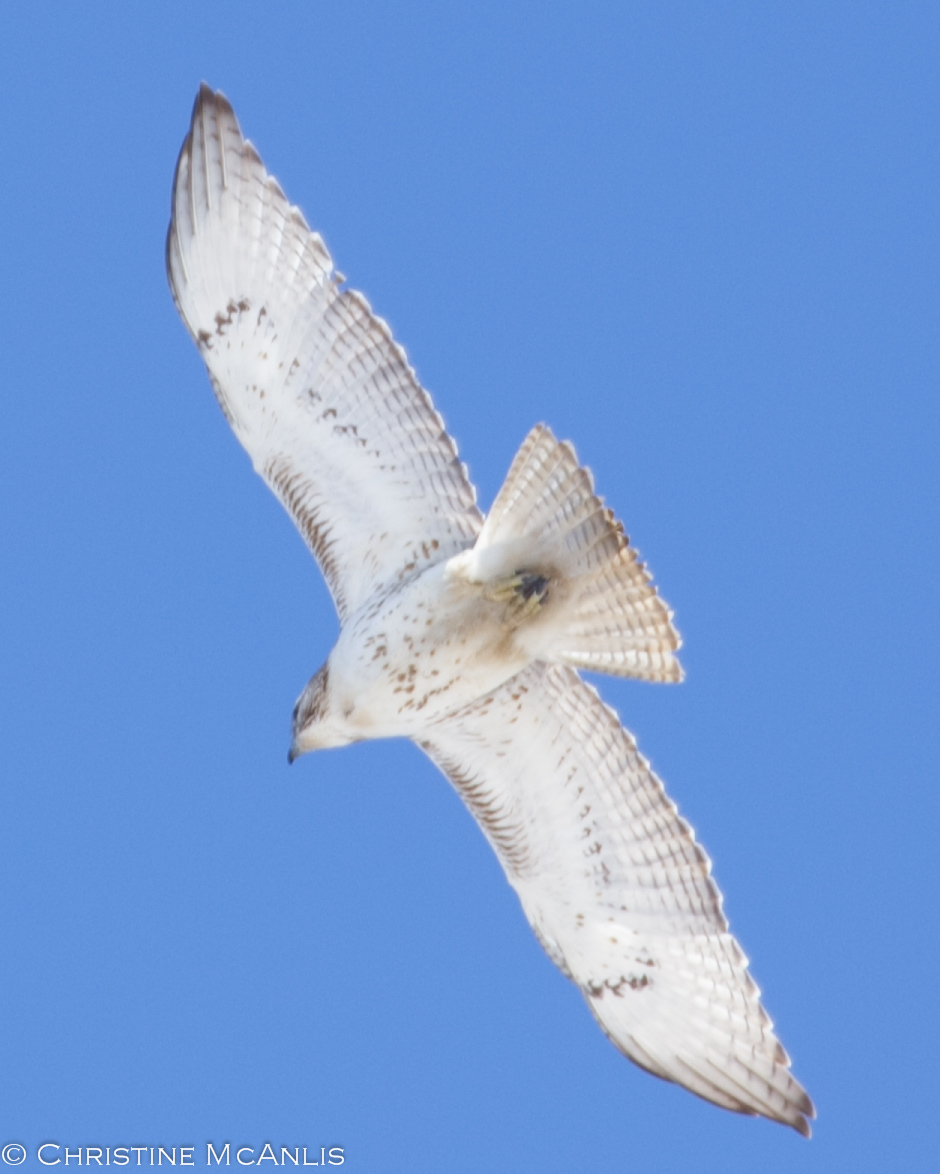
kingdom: Animalia
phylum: Chordata
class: Aves
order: Accipitriformes
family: Accipitridae
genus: Buteo
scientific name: Buteo jamaicensis
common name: Red-tailed hawk
